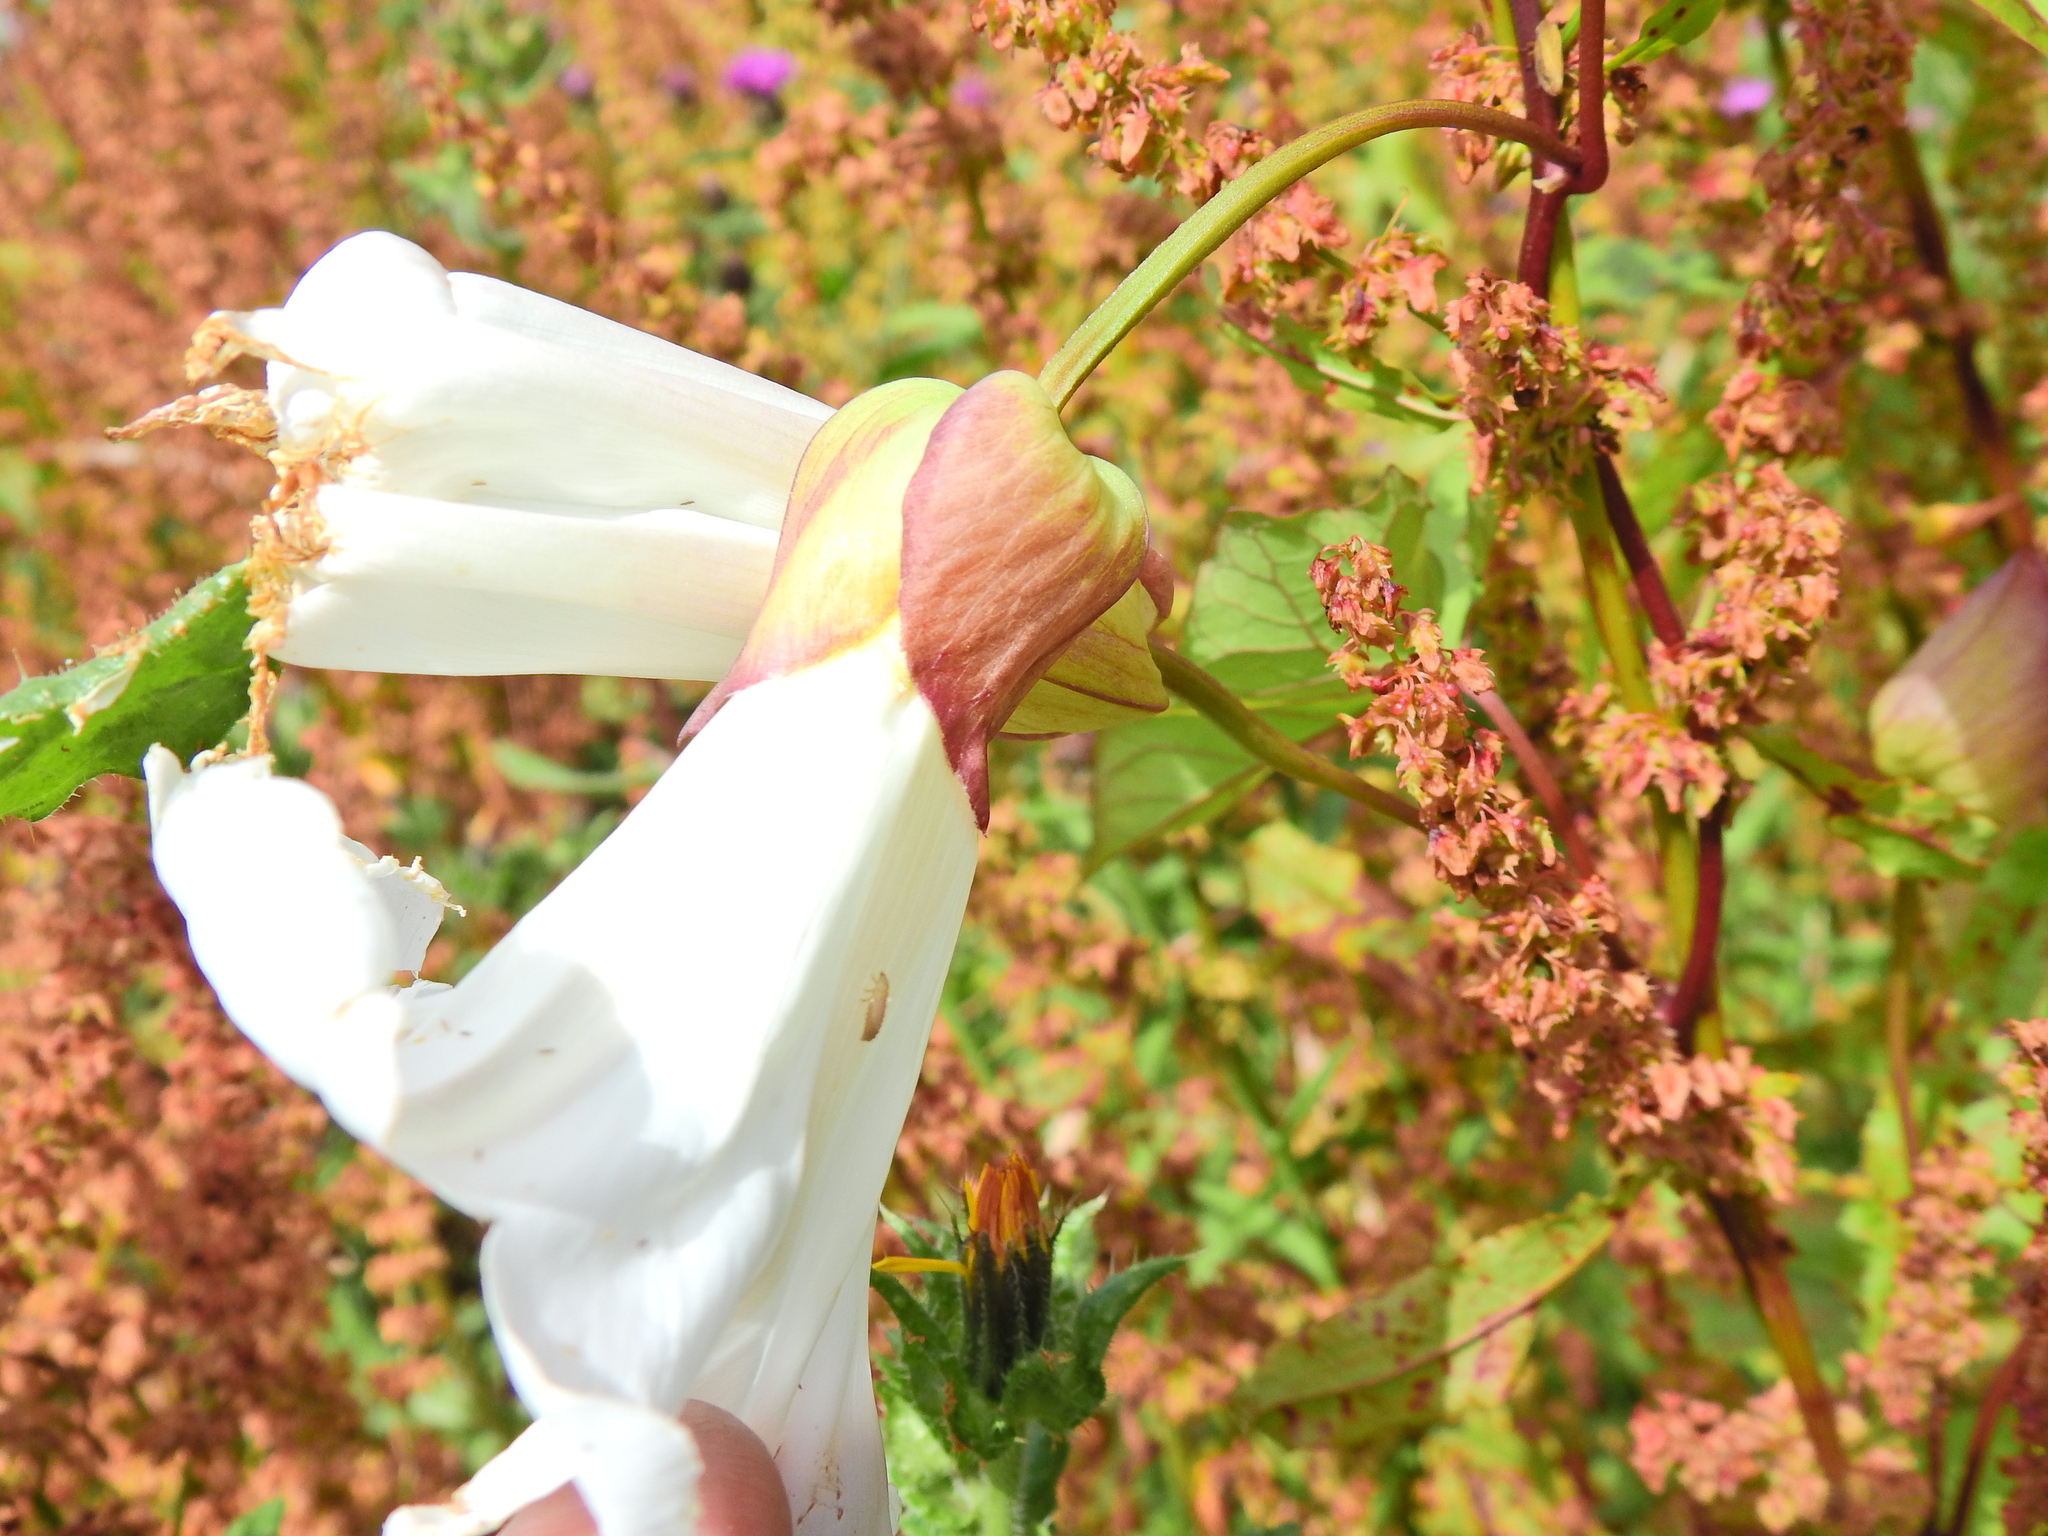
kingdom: Plantae
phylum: Tracheophyta
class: Magnoliopsida
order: Solanales
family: Convolvulaceae
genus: Calystegia
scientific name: Calystegia silvatica
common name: Large bindweed
